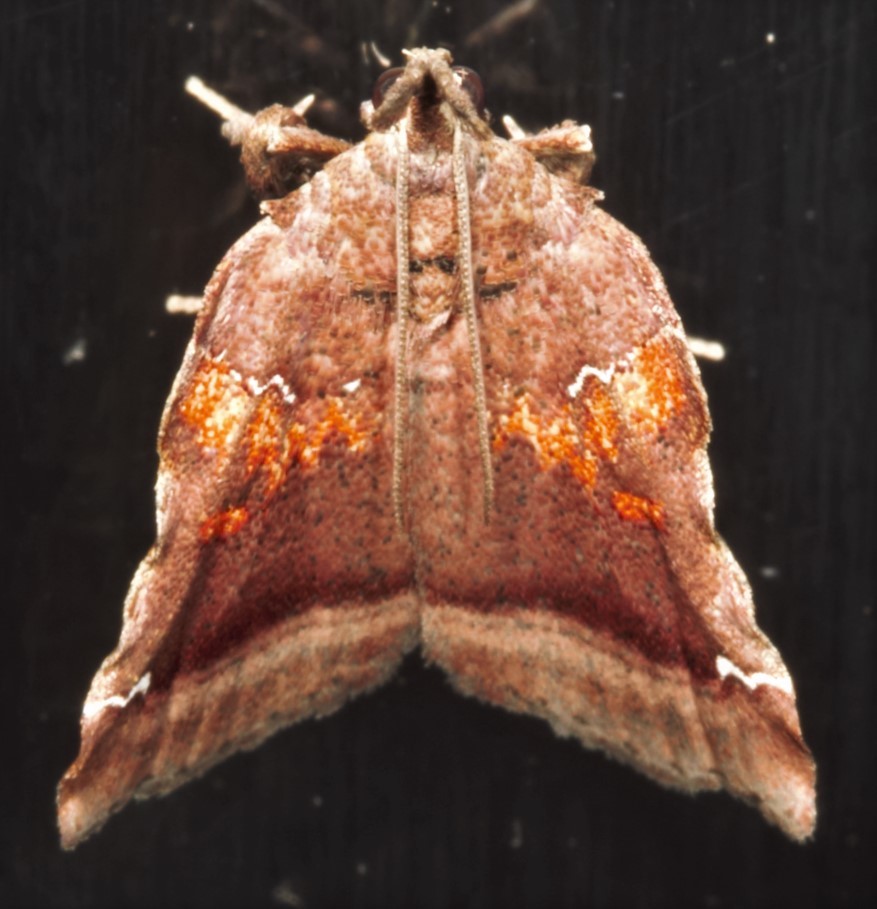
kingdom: Animalia
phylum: Arthropoda
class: Insecta
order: Lepidoptera
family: Pyralidae
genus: Clydonopteron
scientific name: Clydonopteron sacculana
